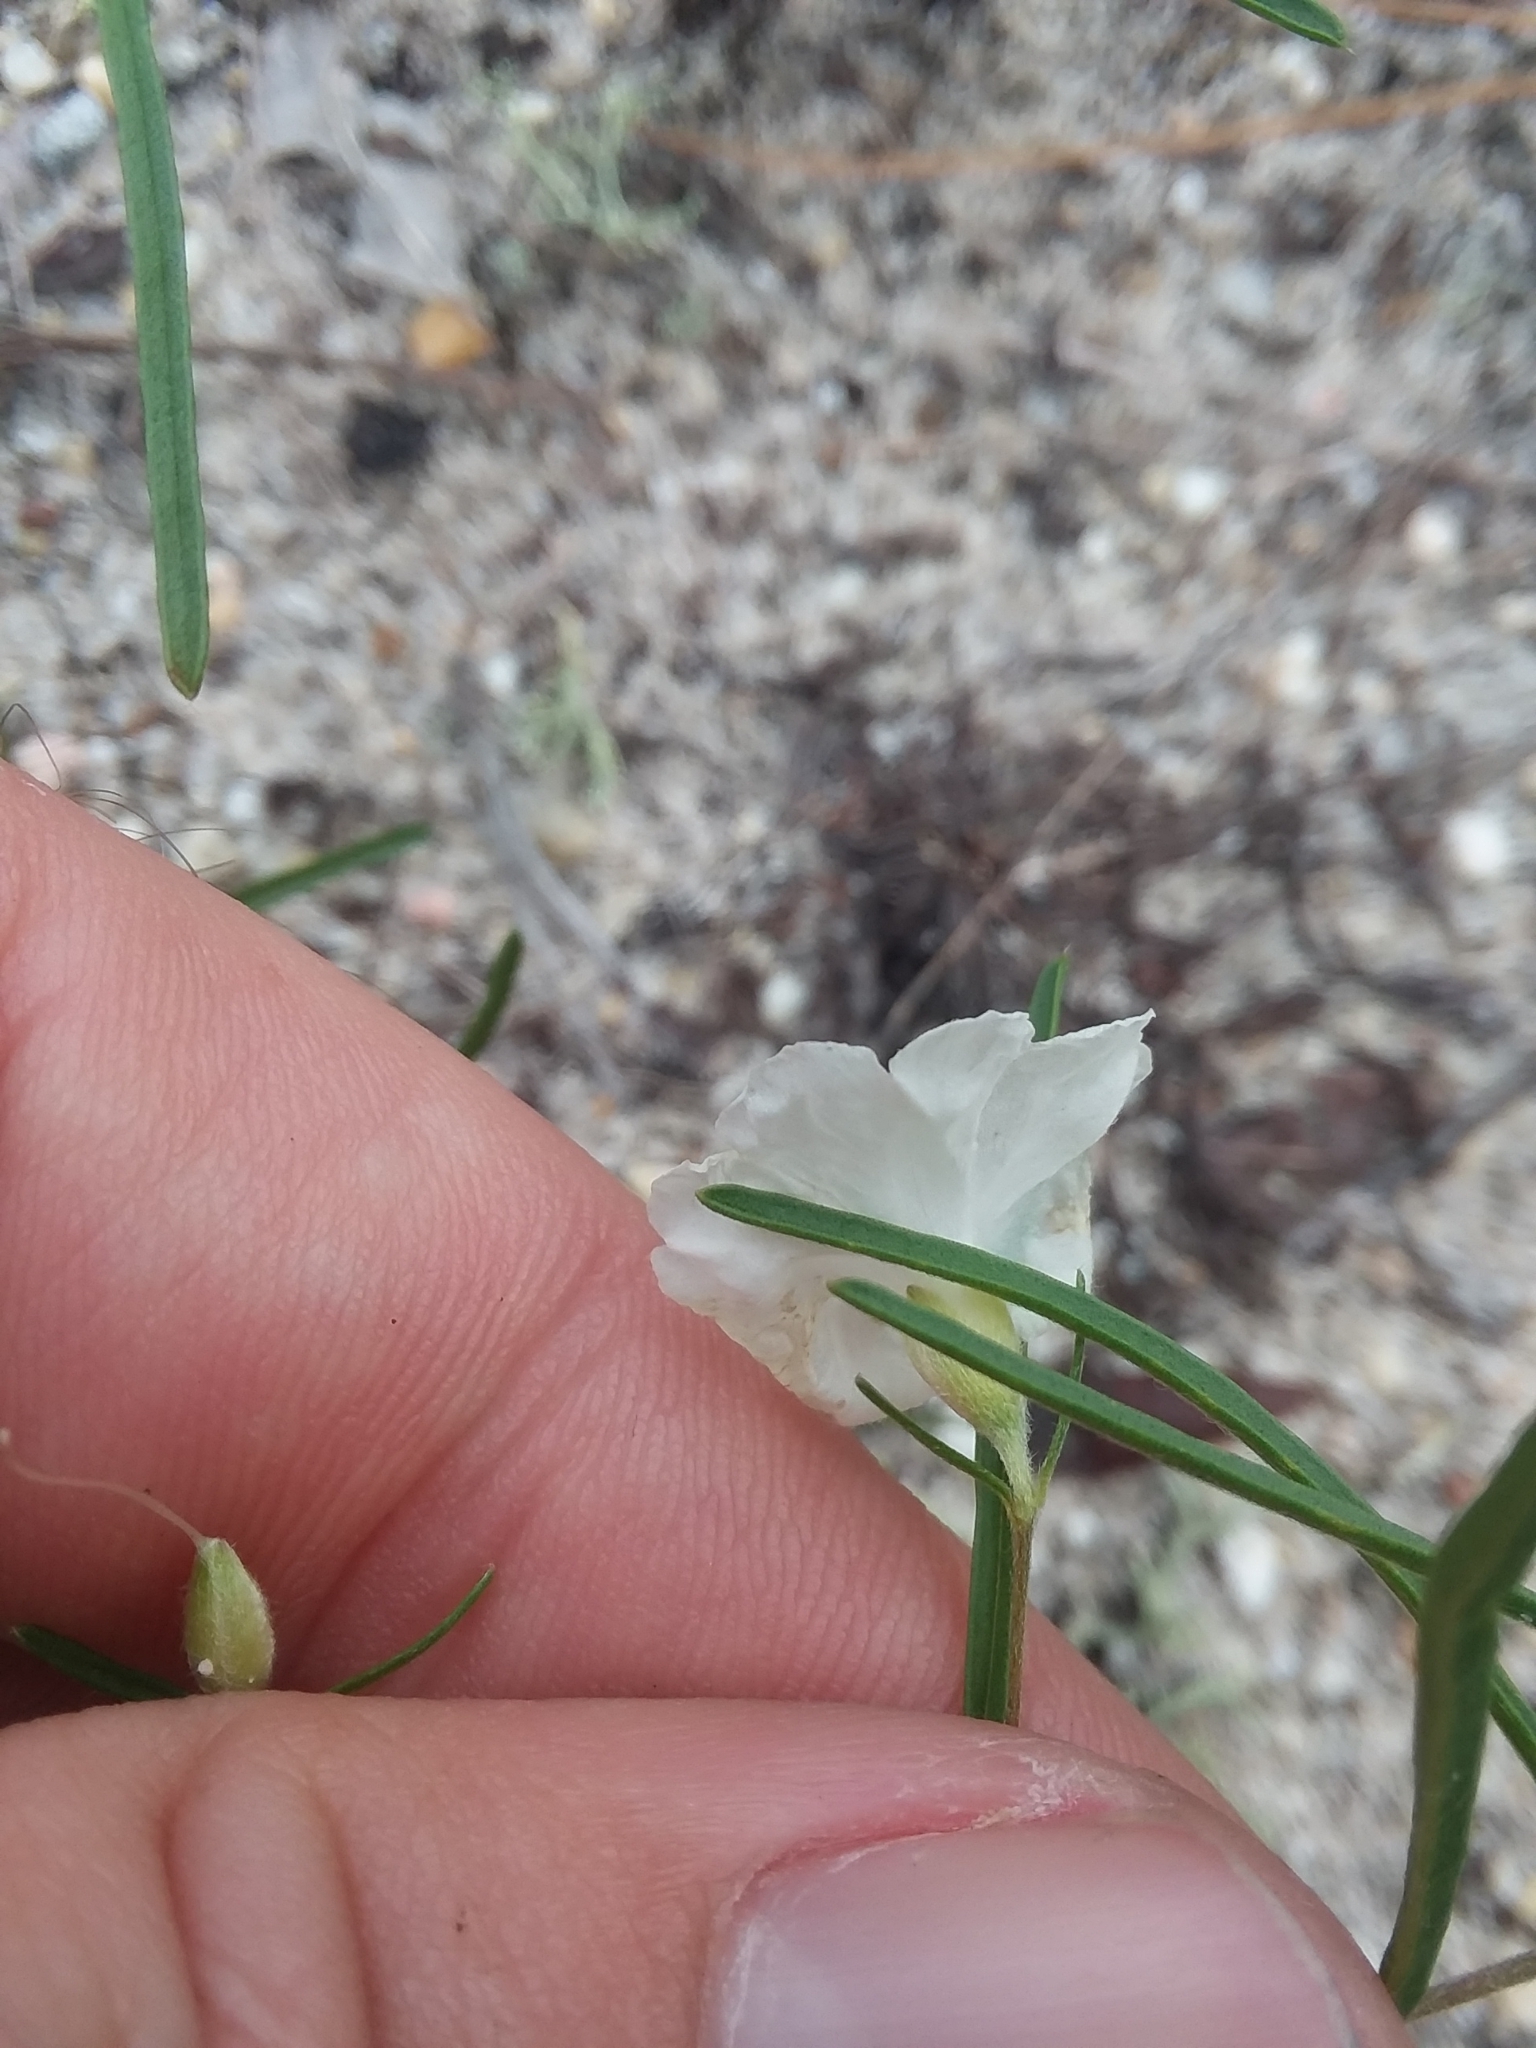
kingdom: Plantae
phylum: Tracheophyta
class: Magnoliopsida
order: Solanales
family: Convolvulaceae
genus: Stylisma
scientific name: Stylisma pickeringii
